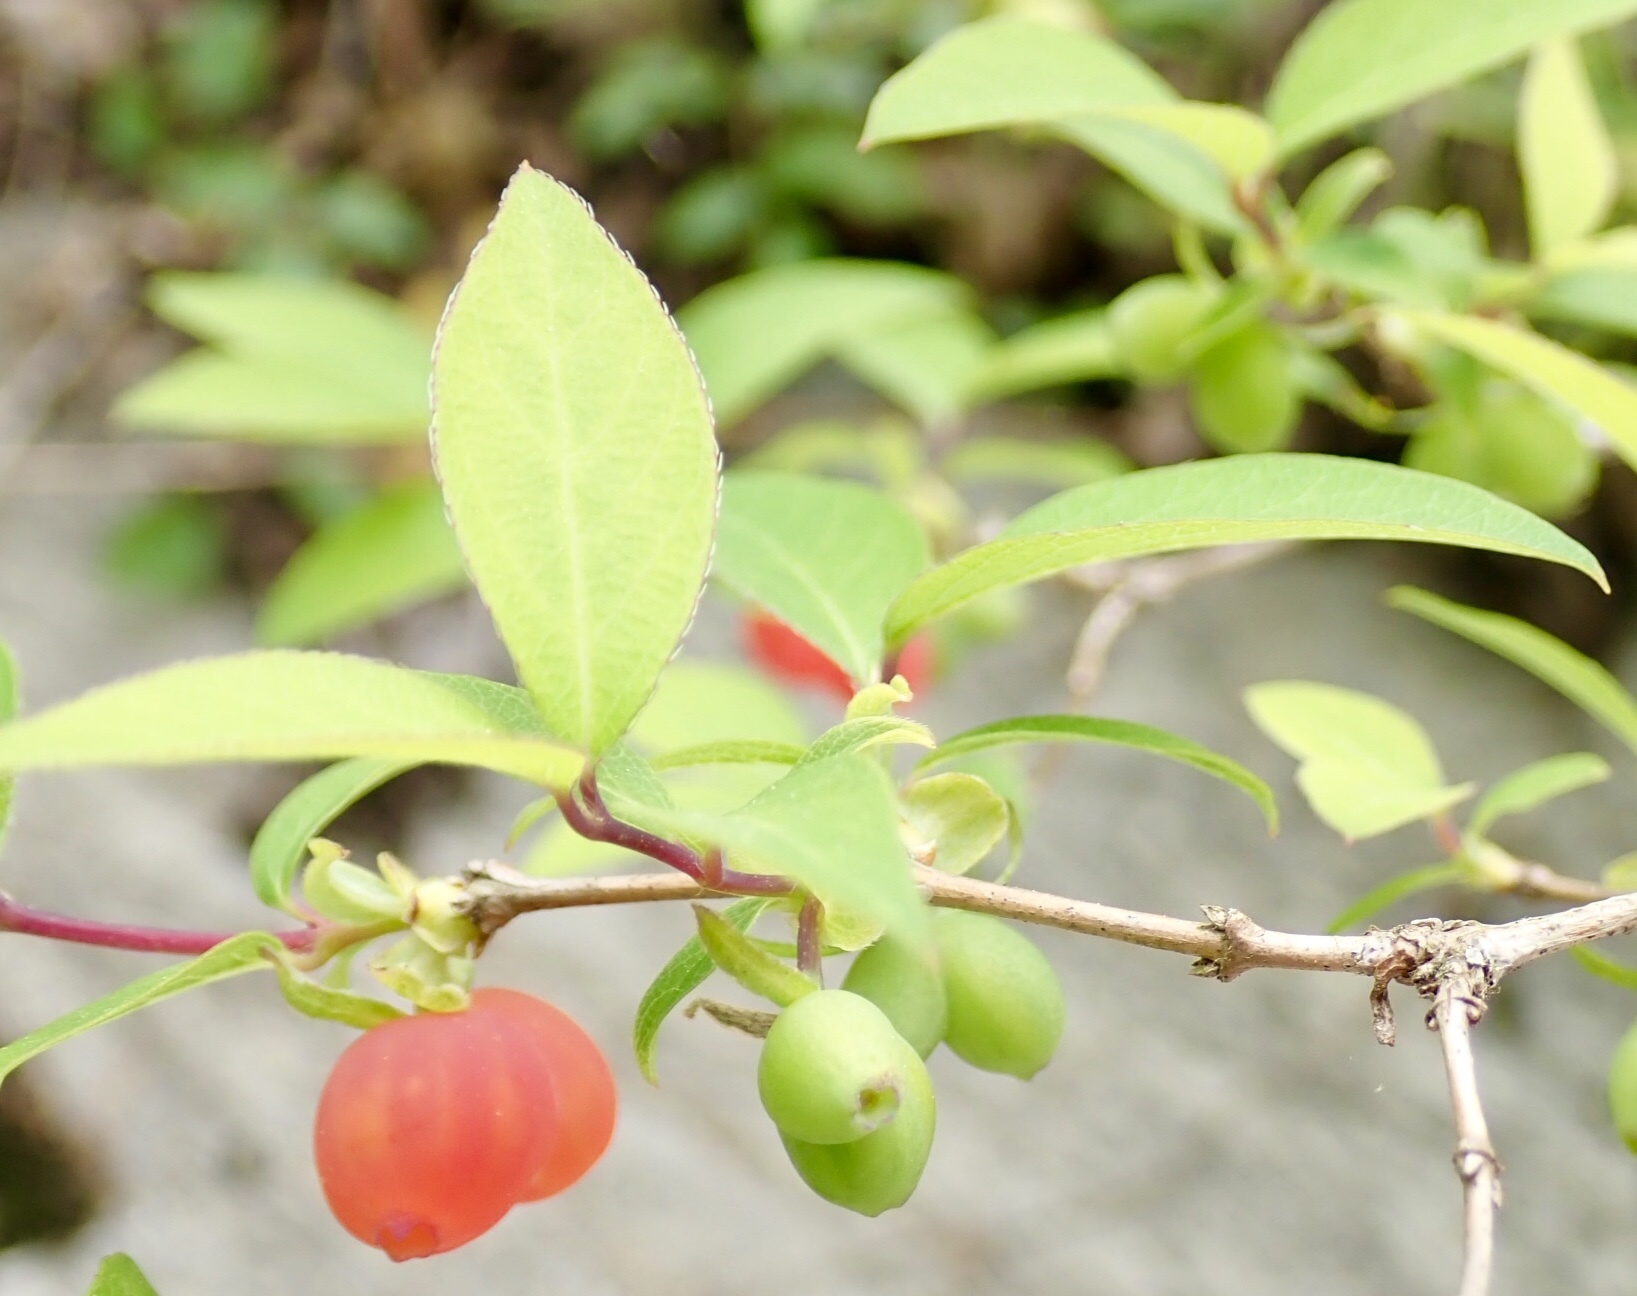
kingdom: Plantae
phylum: Tracheophyta
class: Magnoliopsida
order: Dipsacales
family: Caprifoliaceae
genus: Lonicera
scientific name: Lonicera fragrantissima
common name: Fragrant honeysuckle
